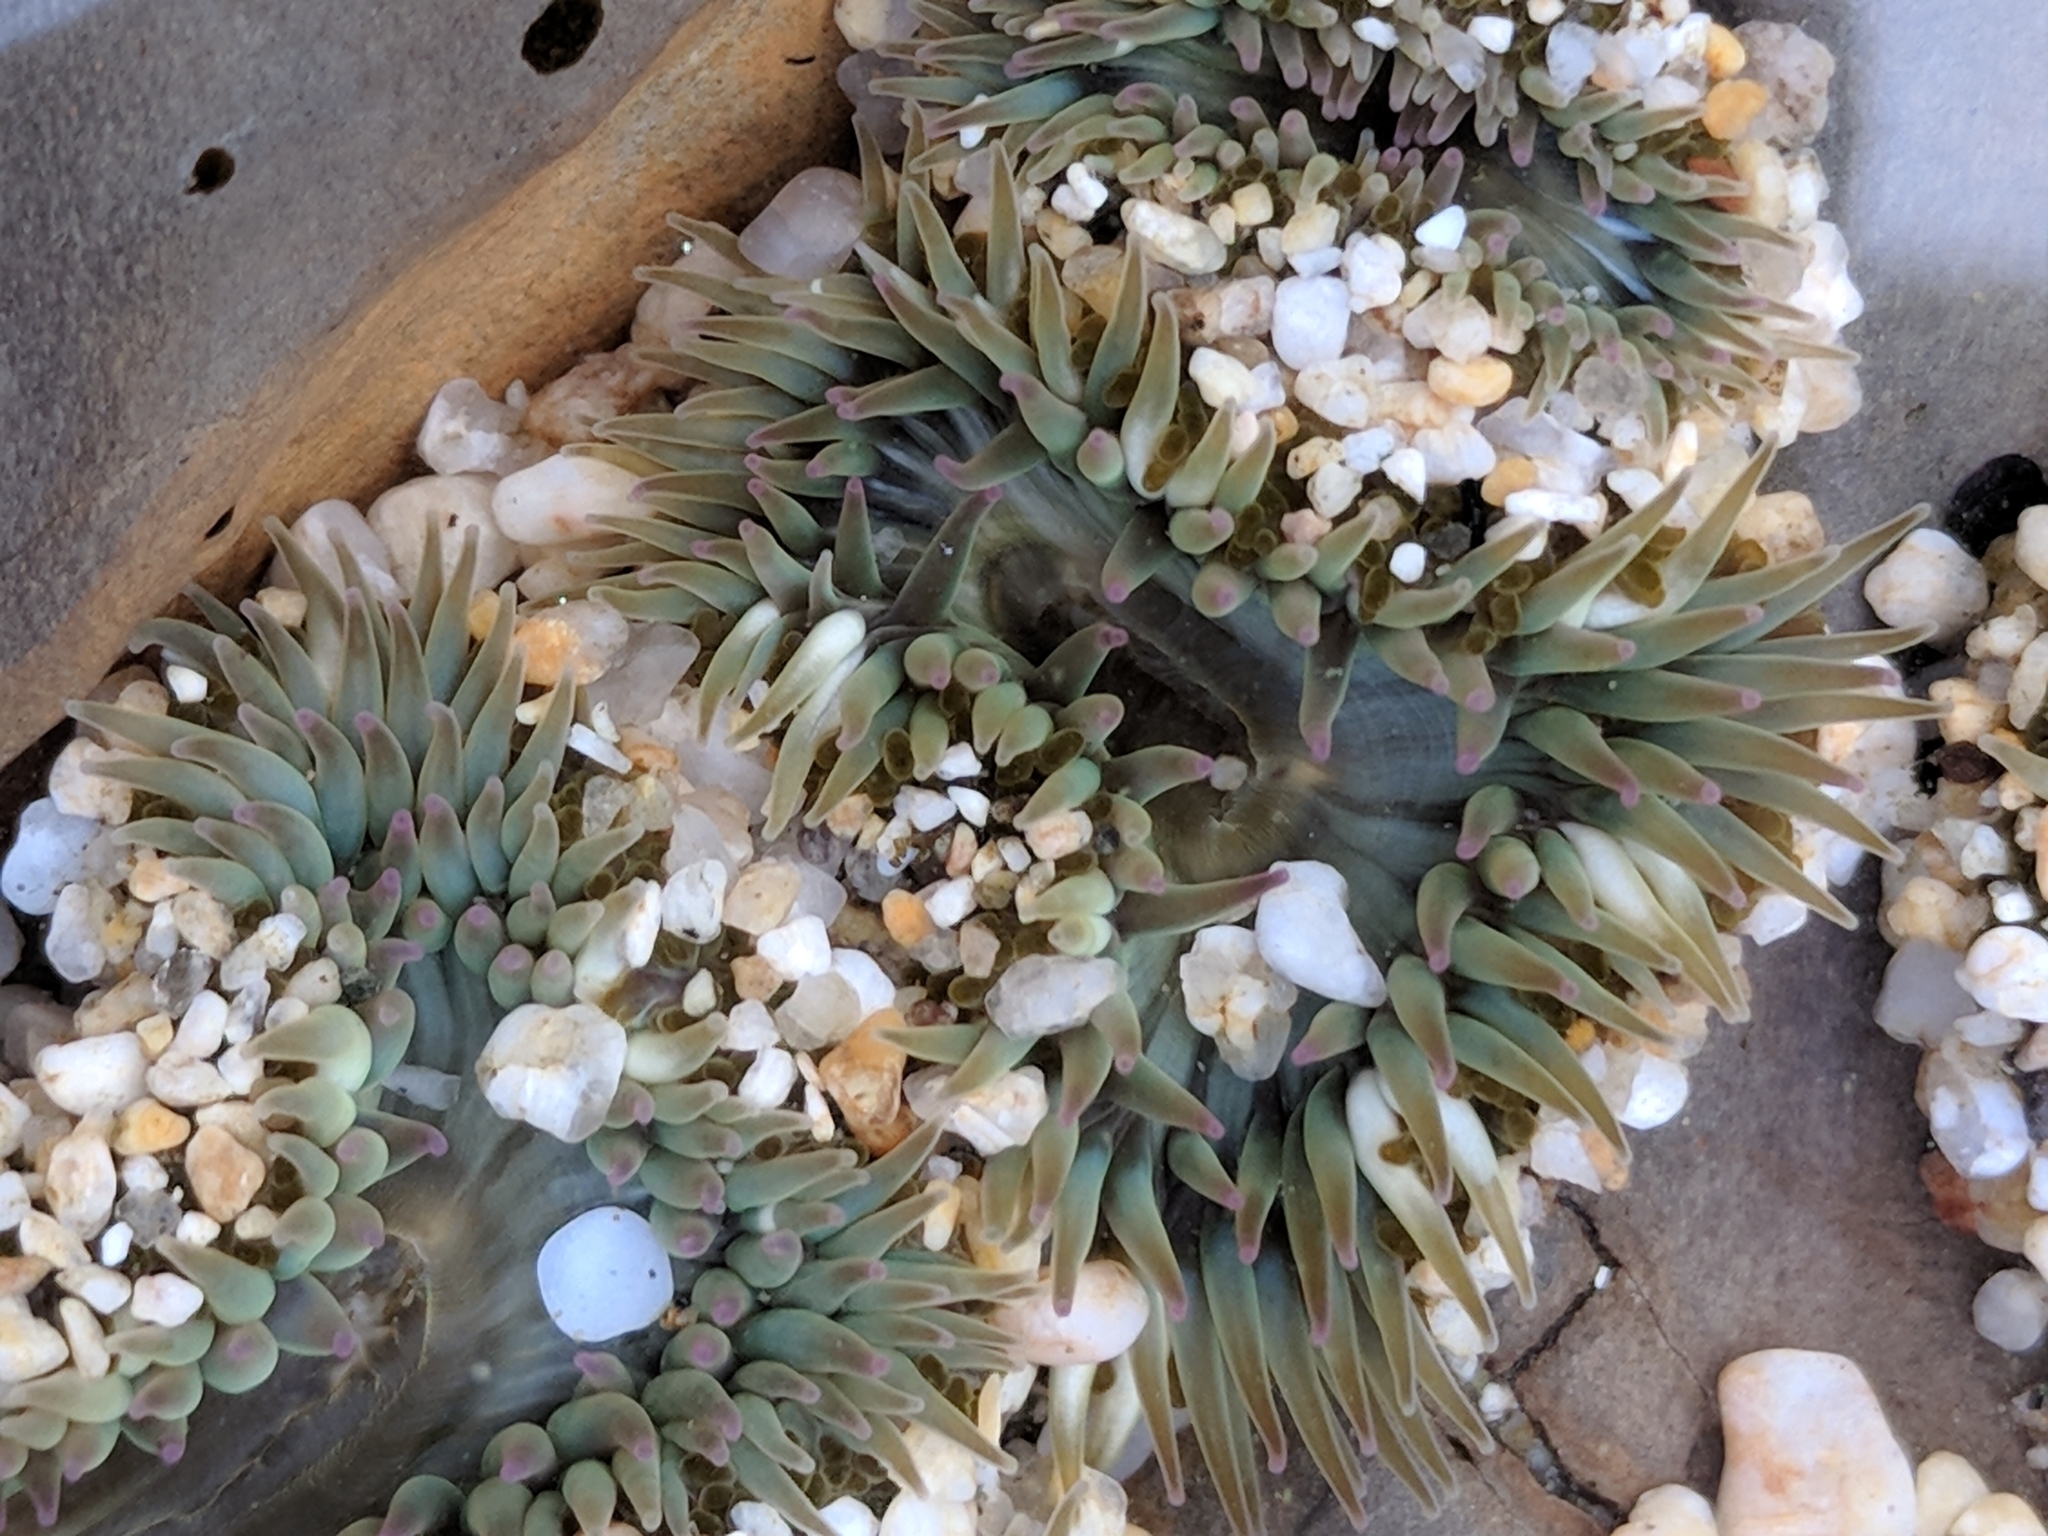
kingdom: Animalia
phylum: Cnidaria
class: Anthozoa
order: Actiniaria
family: Actiniidae
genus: Anthopleura
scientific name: Anthopleura elegantissima
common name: Clonal anemone
